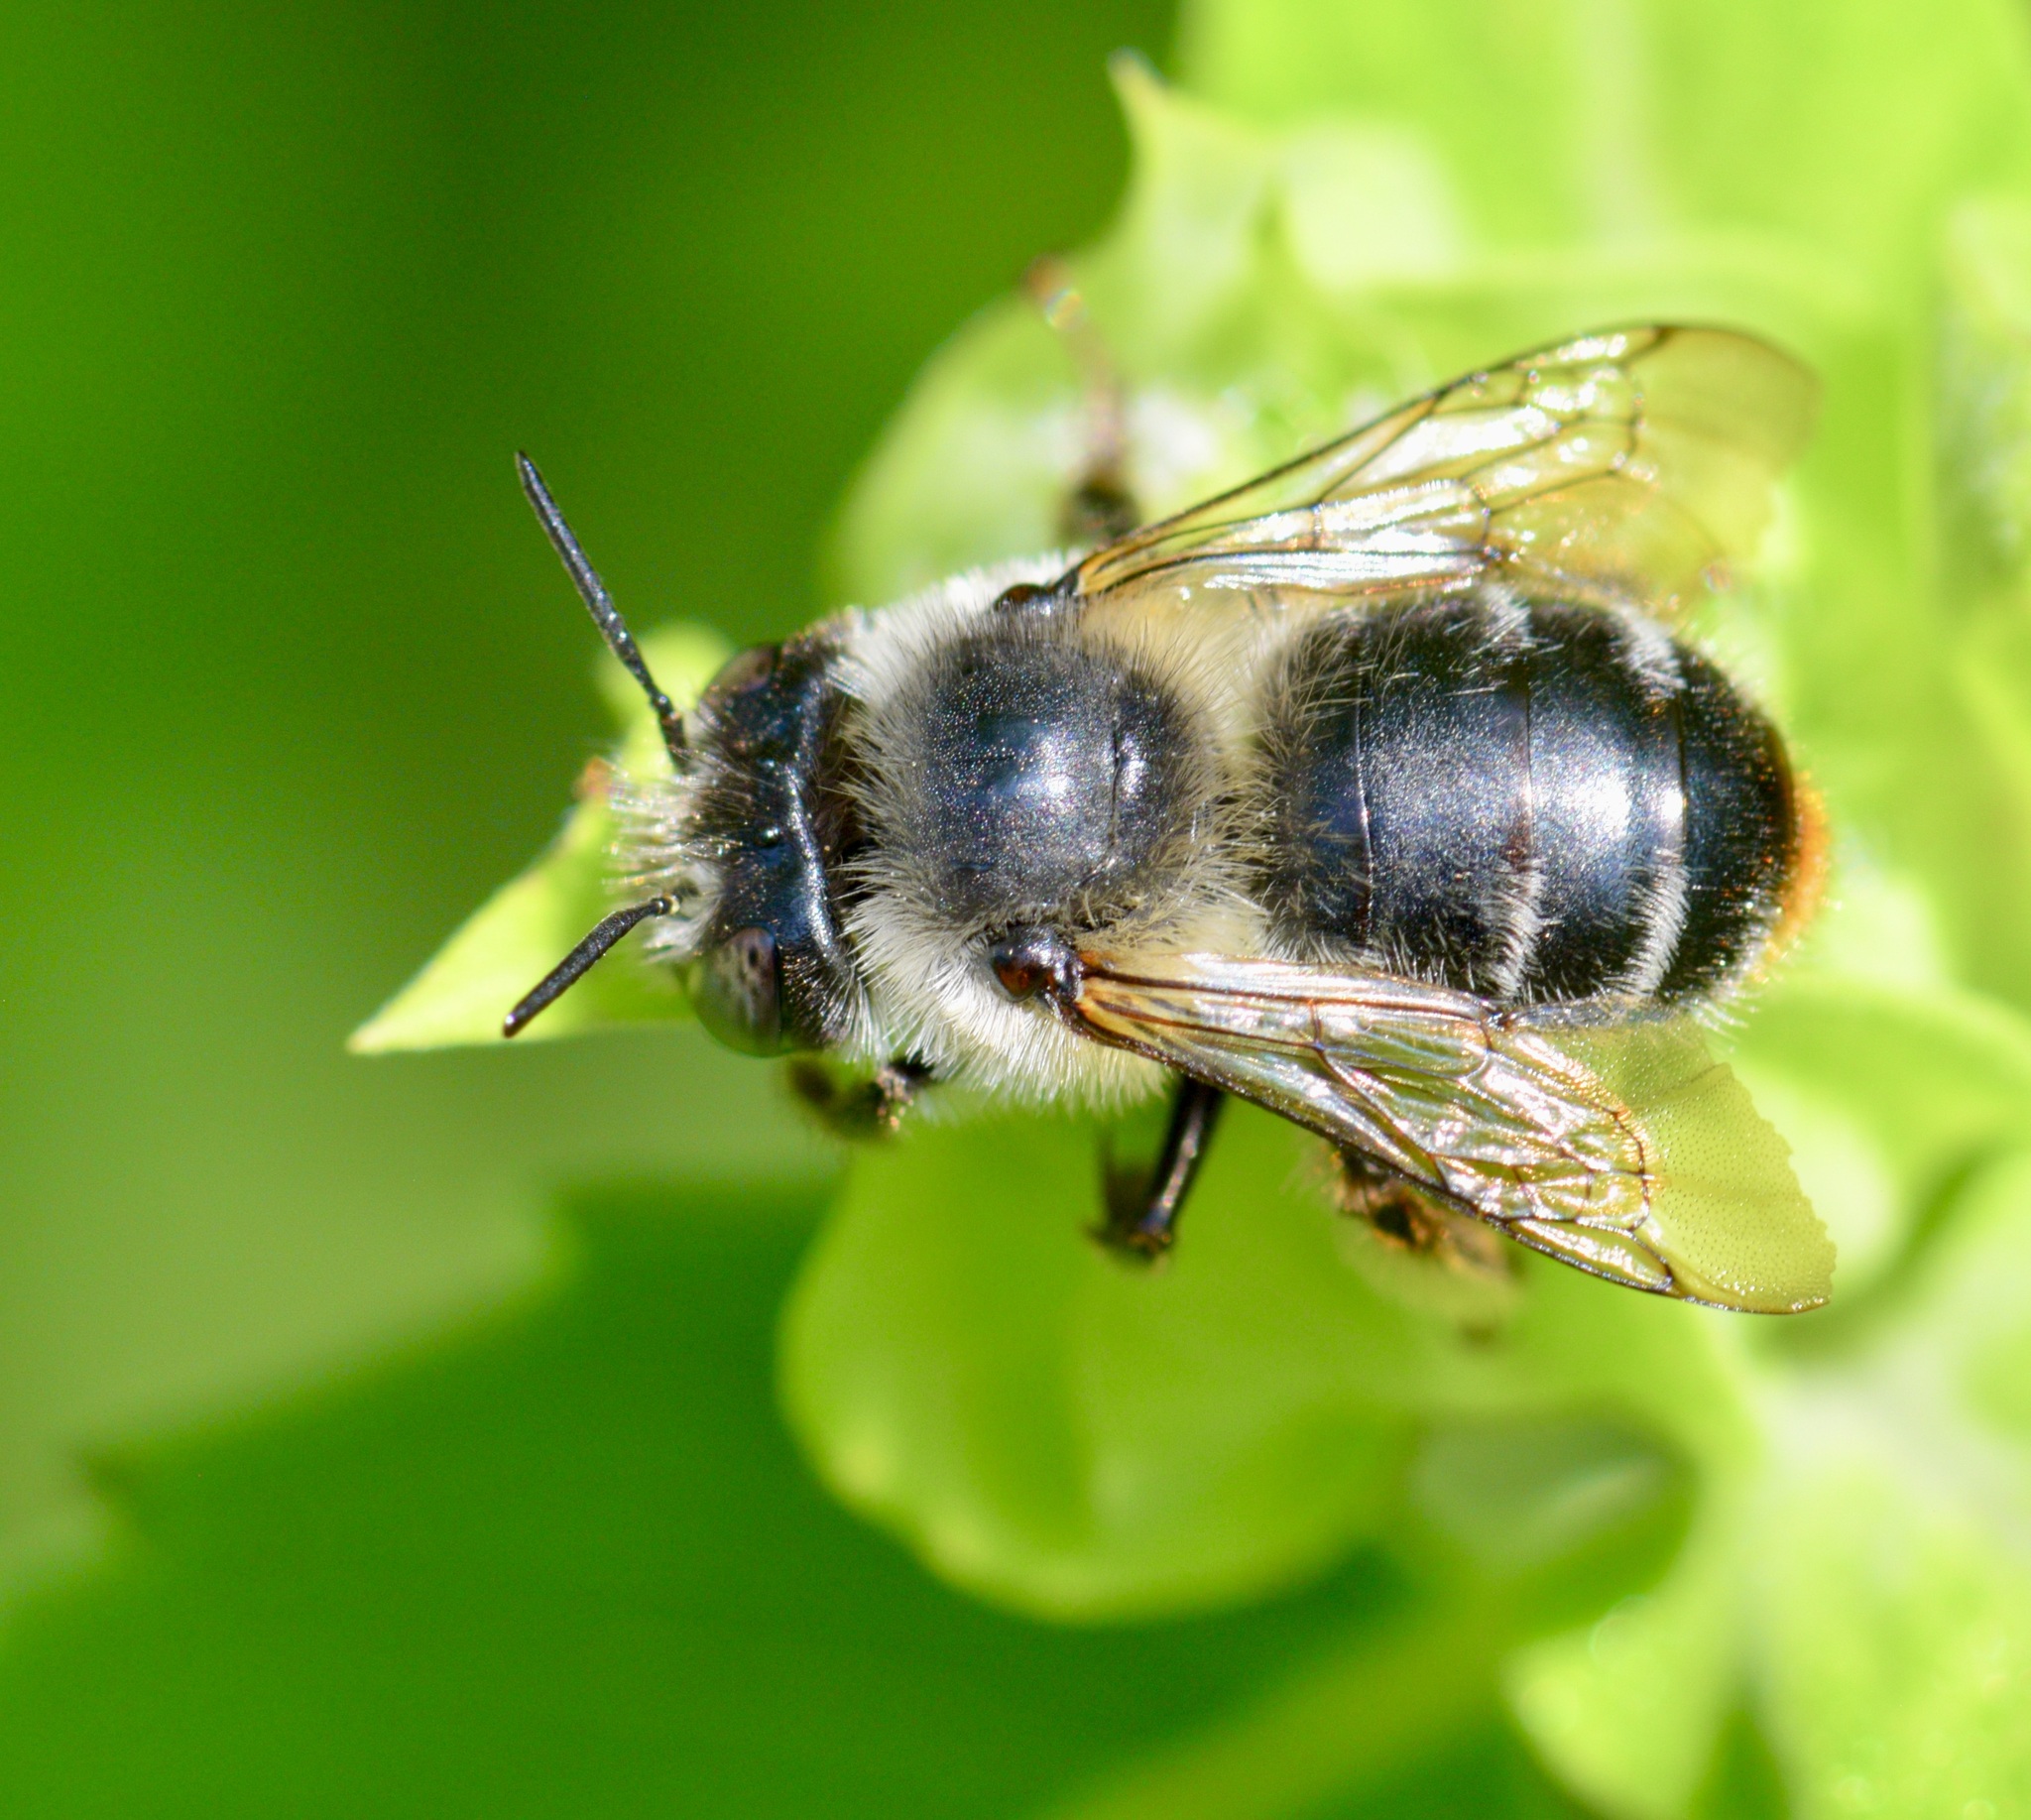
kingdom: Animalia
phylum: Arthropoda
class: Insecta
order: Hymenoptera
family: Apidae
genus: Anthophora
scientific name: Anthophora terminalis
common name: Orange-tipped wood-digger bee
